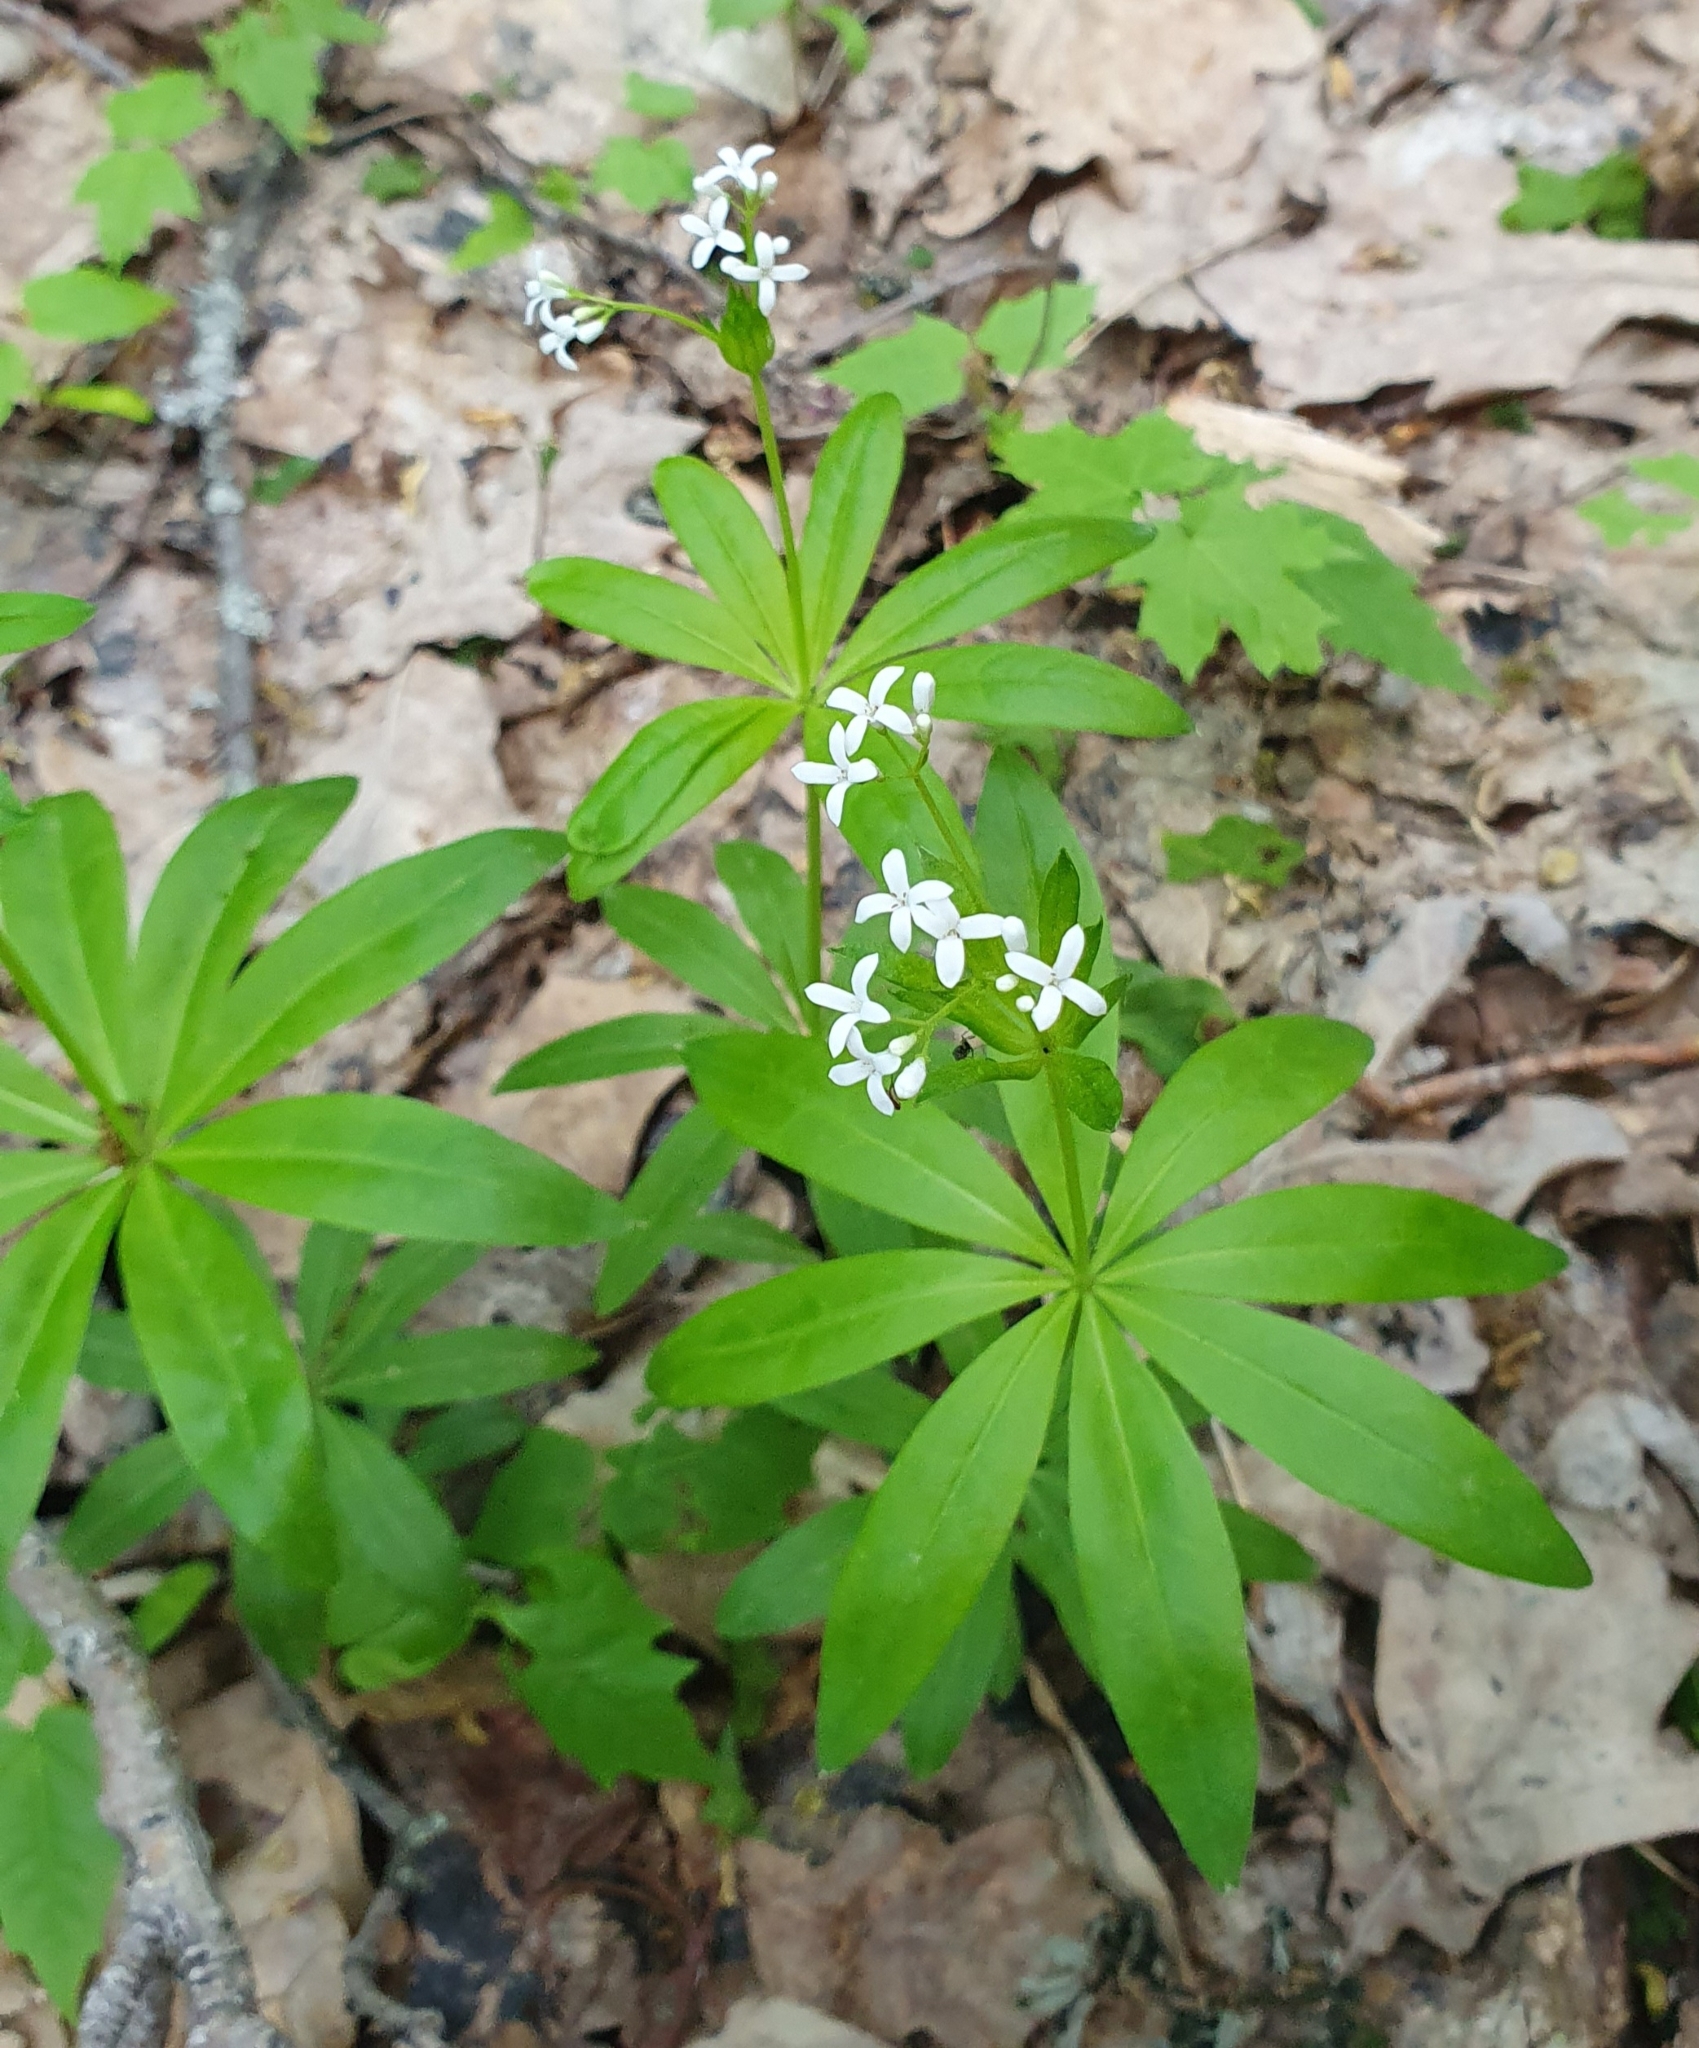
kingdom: Plantae
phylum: Tracheophyta
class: Magnoliopsida
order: Gentianales
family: Rubiaceae
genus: Galium
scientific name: Galium odoratum
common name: Sweet woodruff
